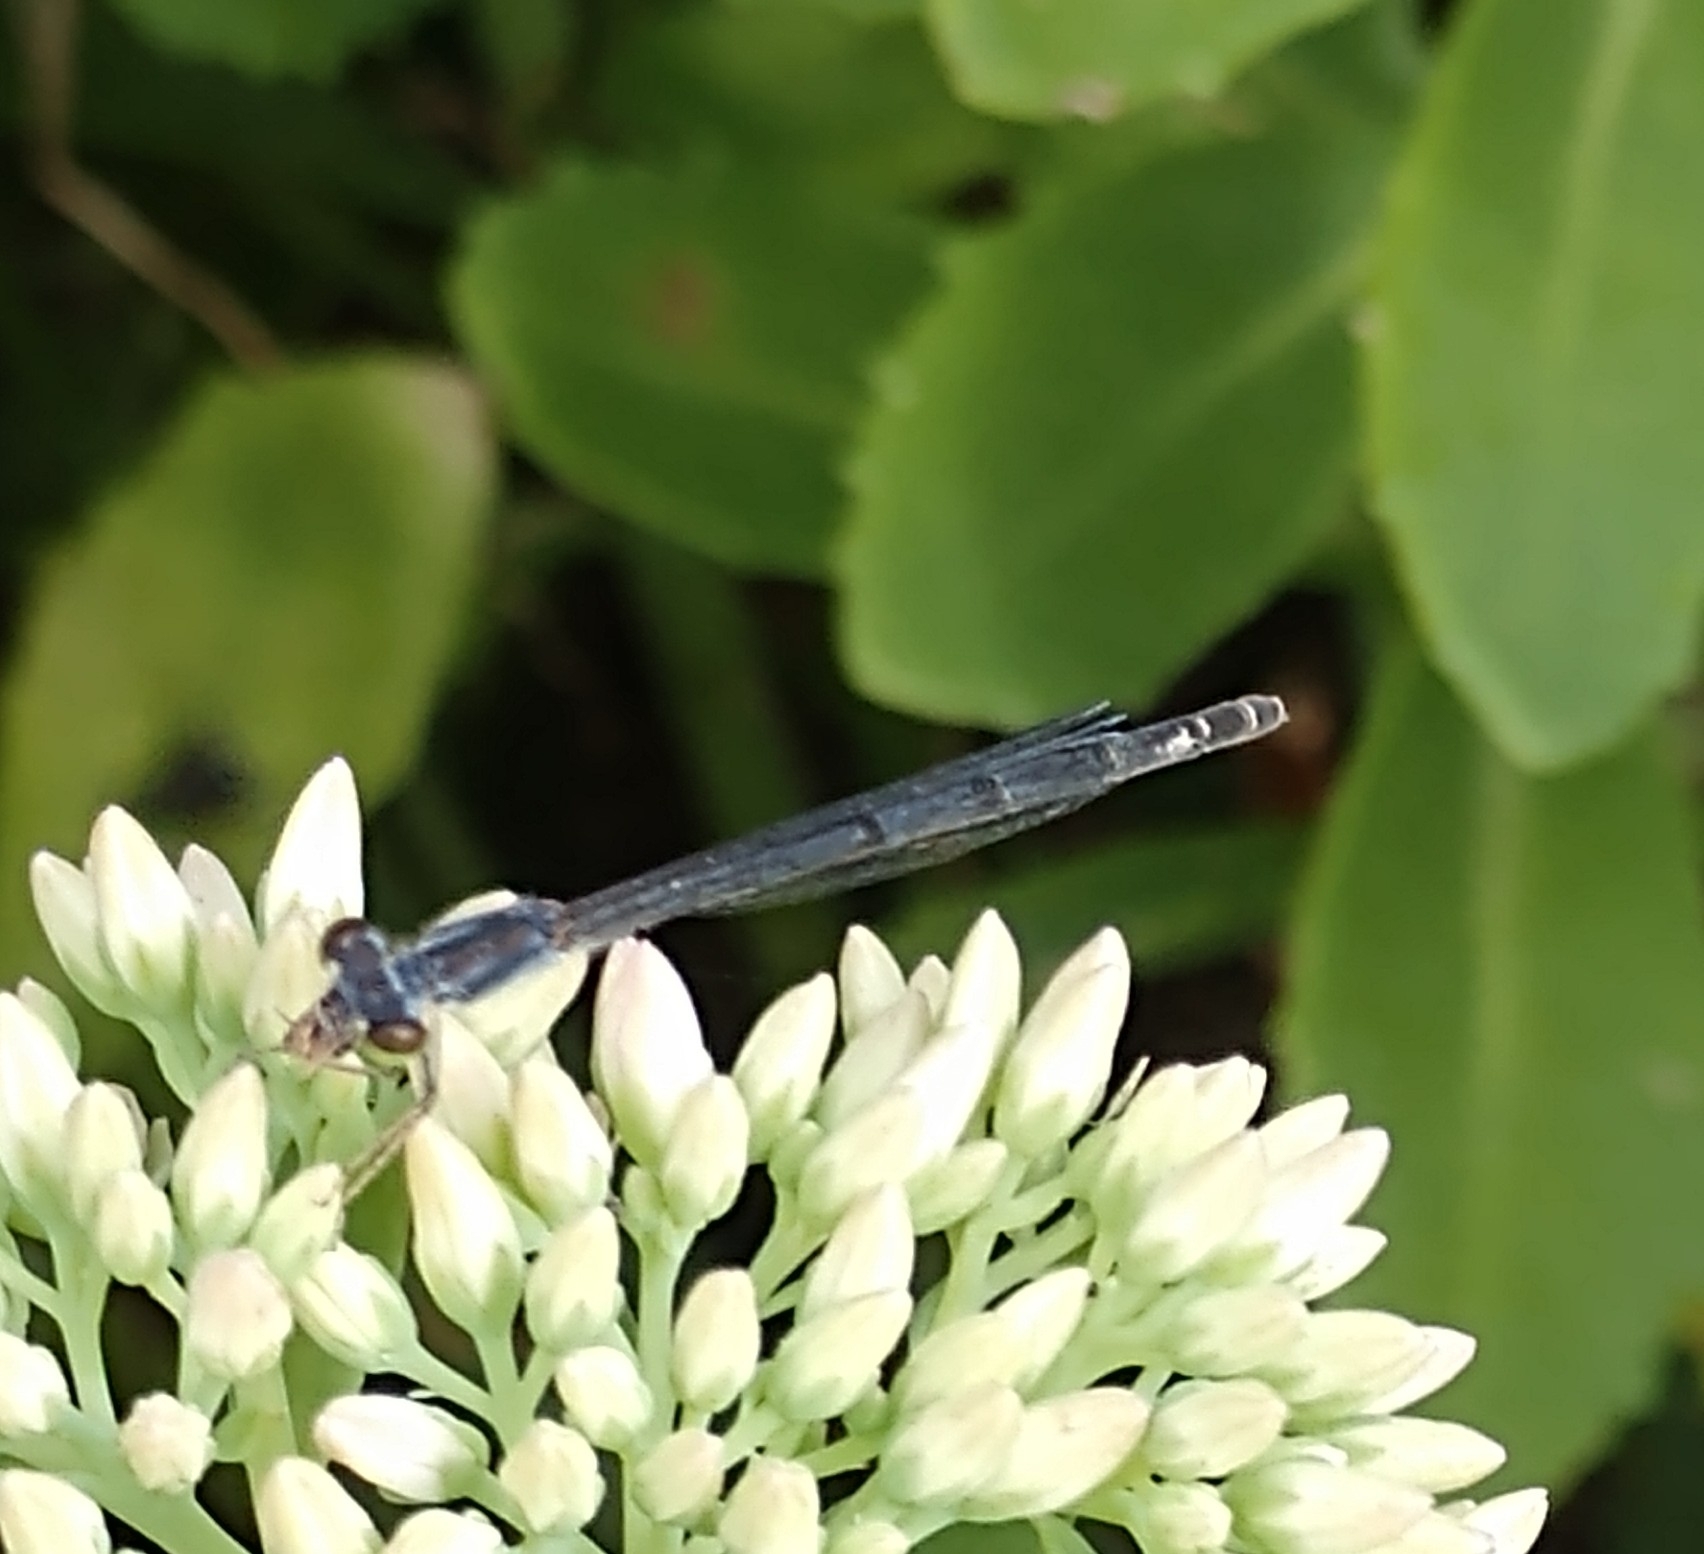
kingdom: Animalia
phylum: Arthropoda
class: Insecta
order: Odonata
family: Coenagrionidae
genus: Ischnura
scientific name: Ischnura posita
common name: Fragile forktail
